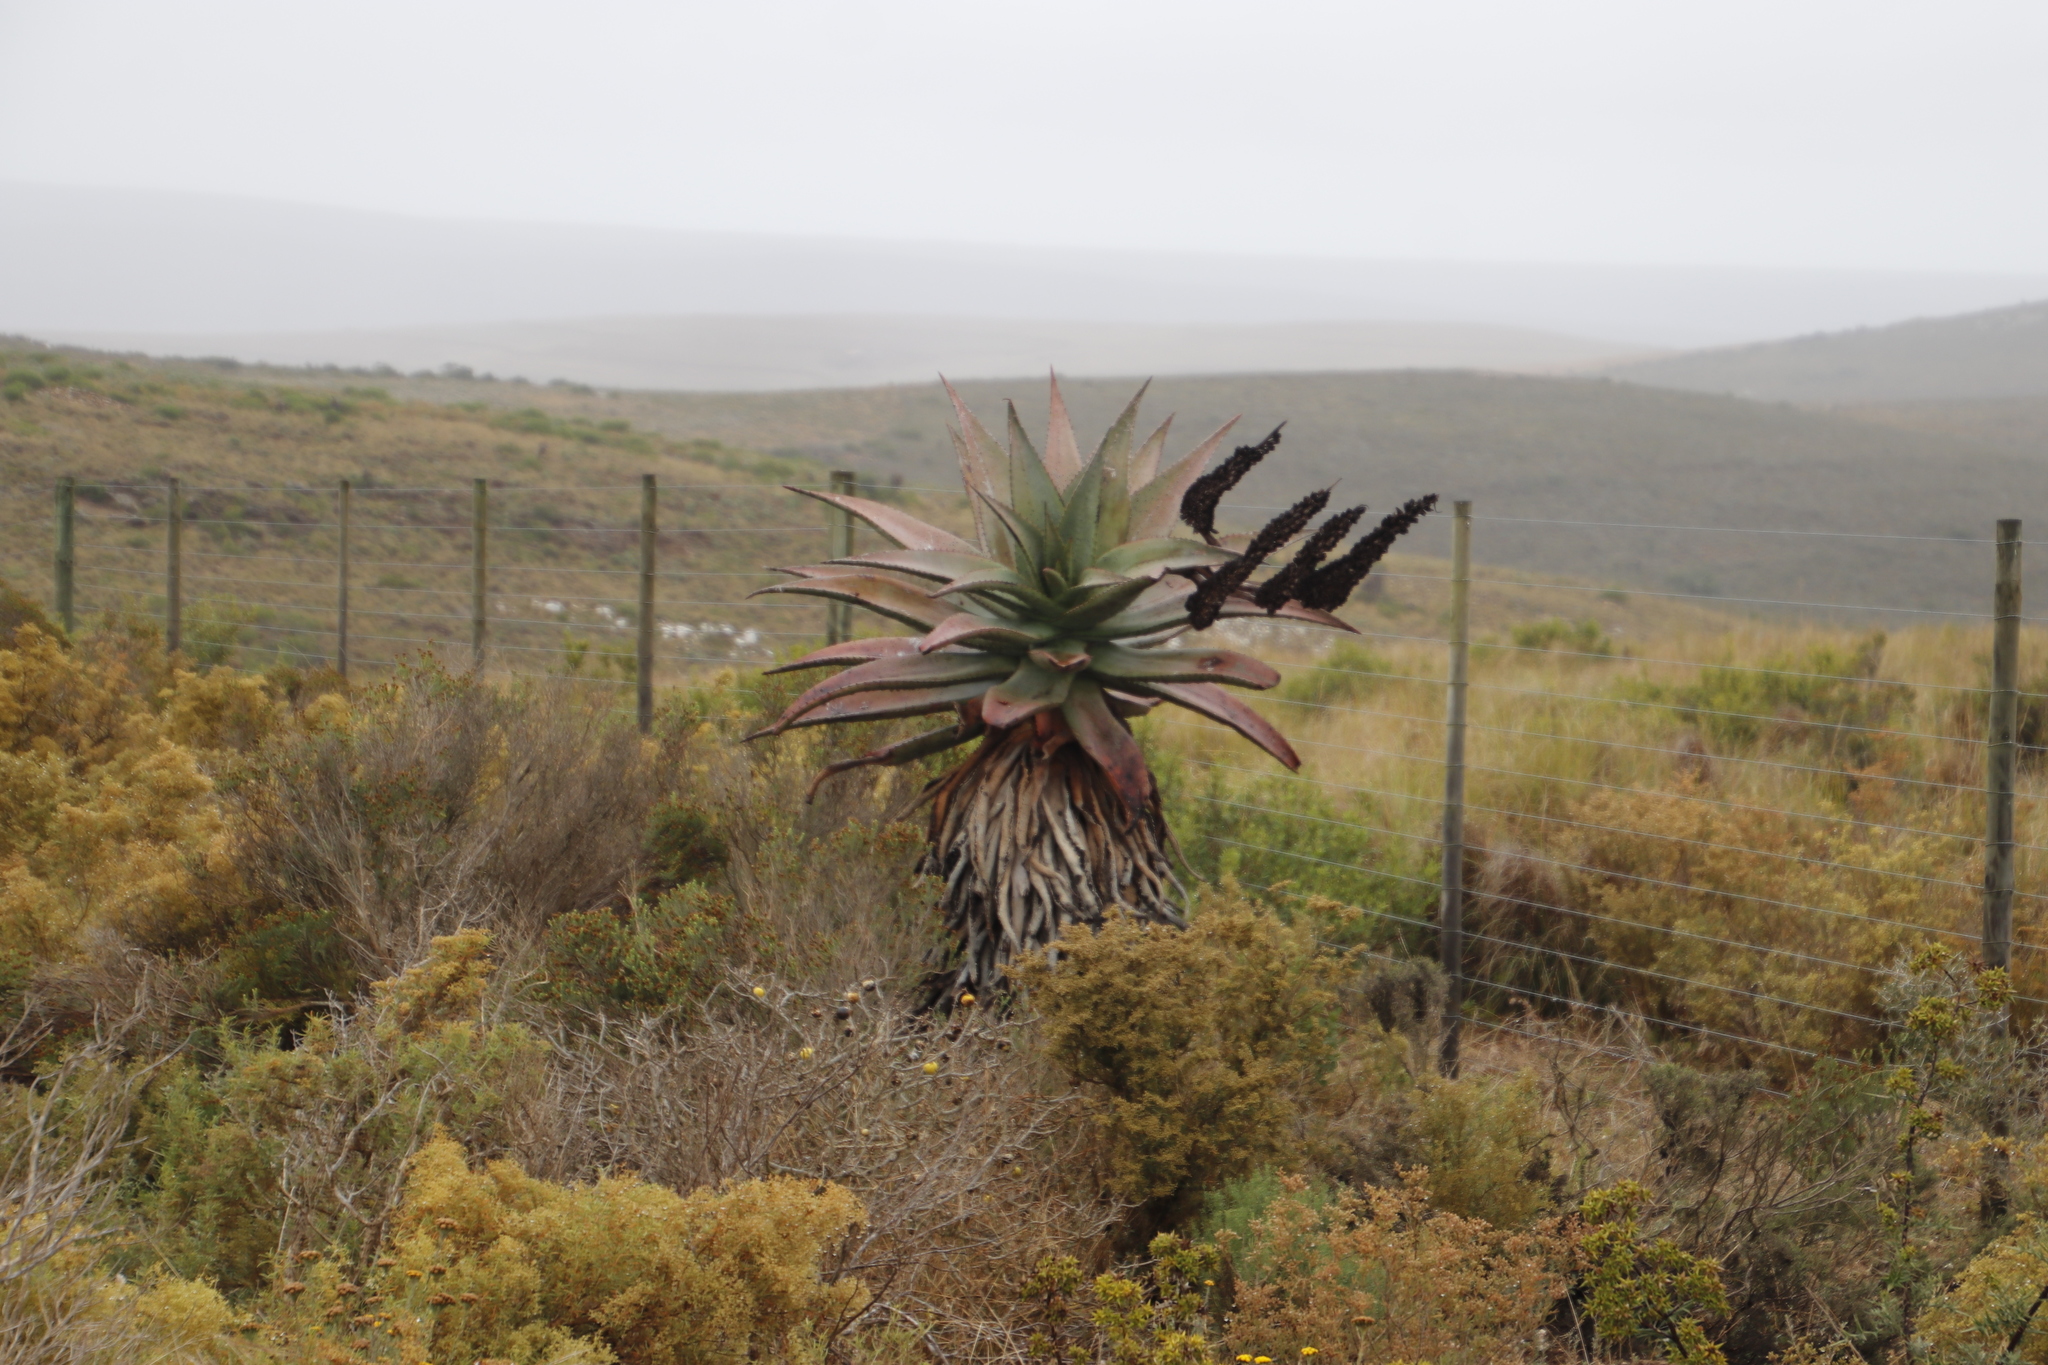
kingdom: Plantae
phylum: Tracheophyta
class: Liliopsida
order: Asparagales
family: Asphodelaceae
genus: Aloe
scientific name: Aloe ferox
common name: Bitter aloe
